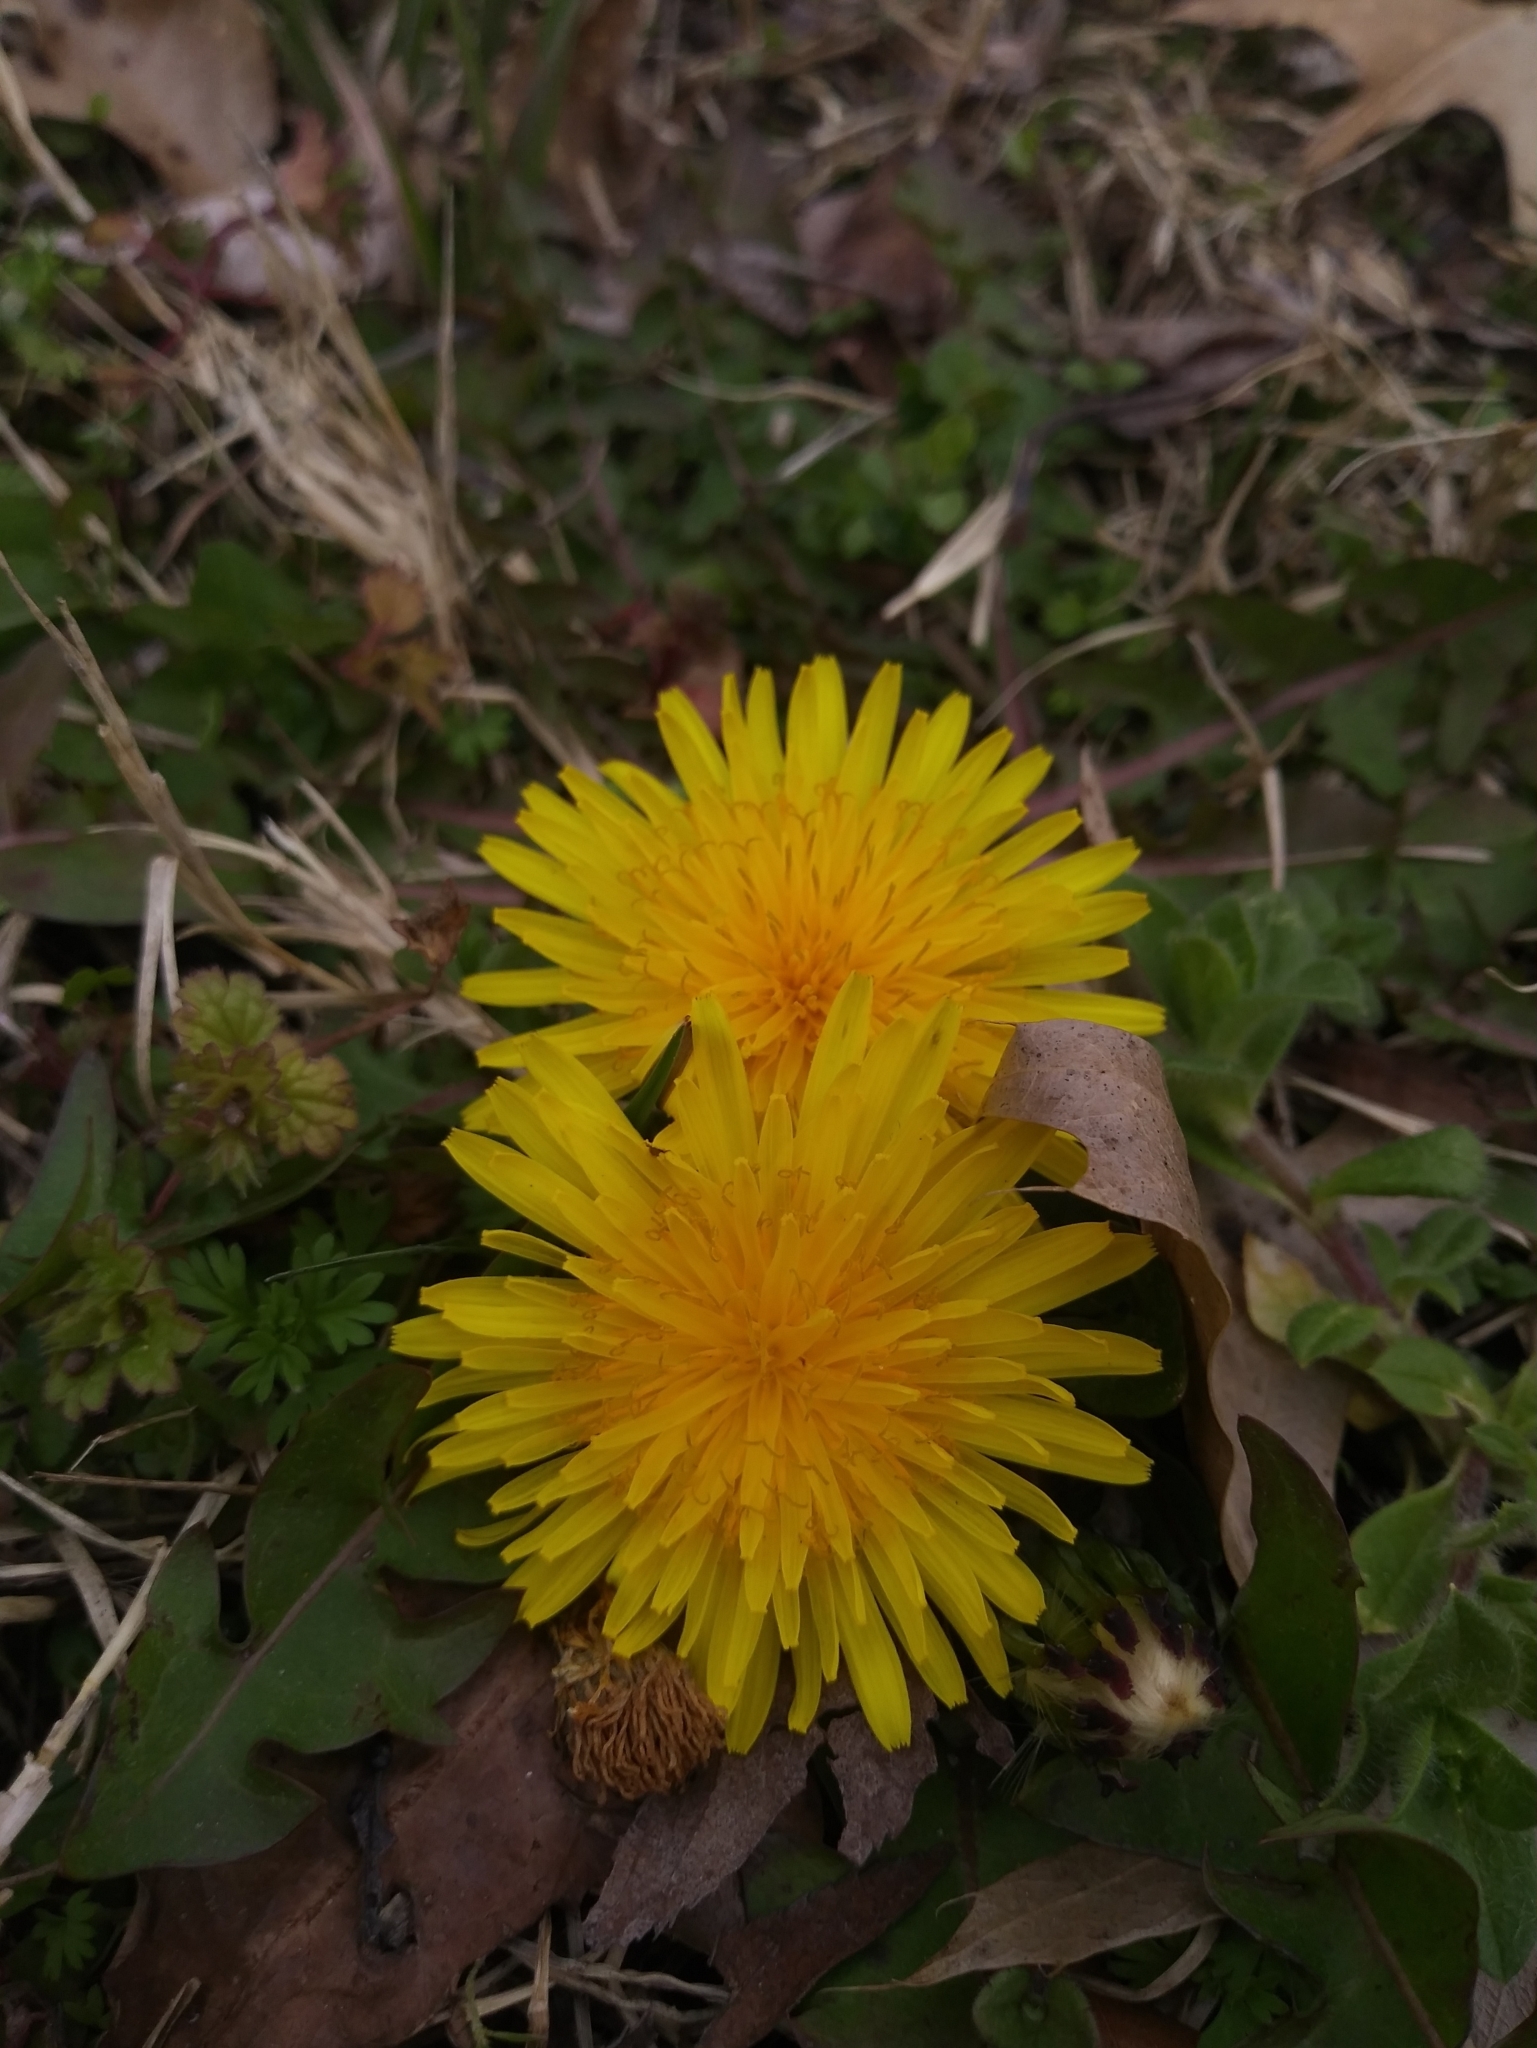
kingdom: Plantae
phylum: Tracheophyta
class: Magnoliopsida
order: Asterales
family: Asteraceae
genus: Taraxacum
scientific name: Taraxacum officinale
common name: Common dandelion
